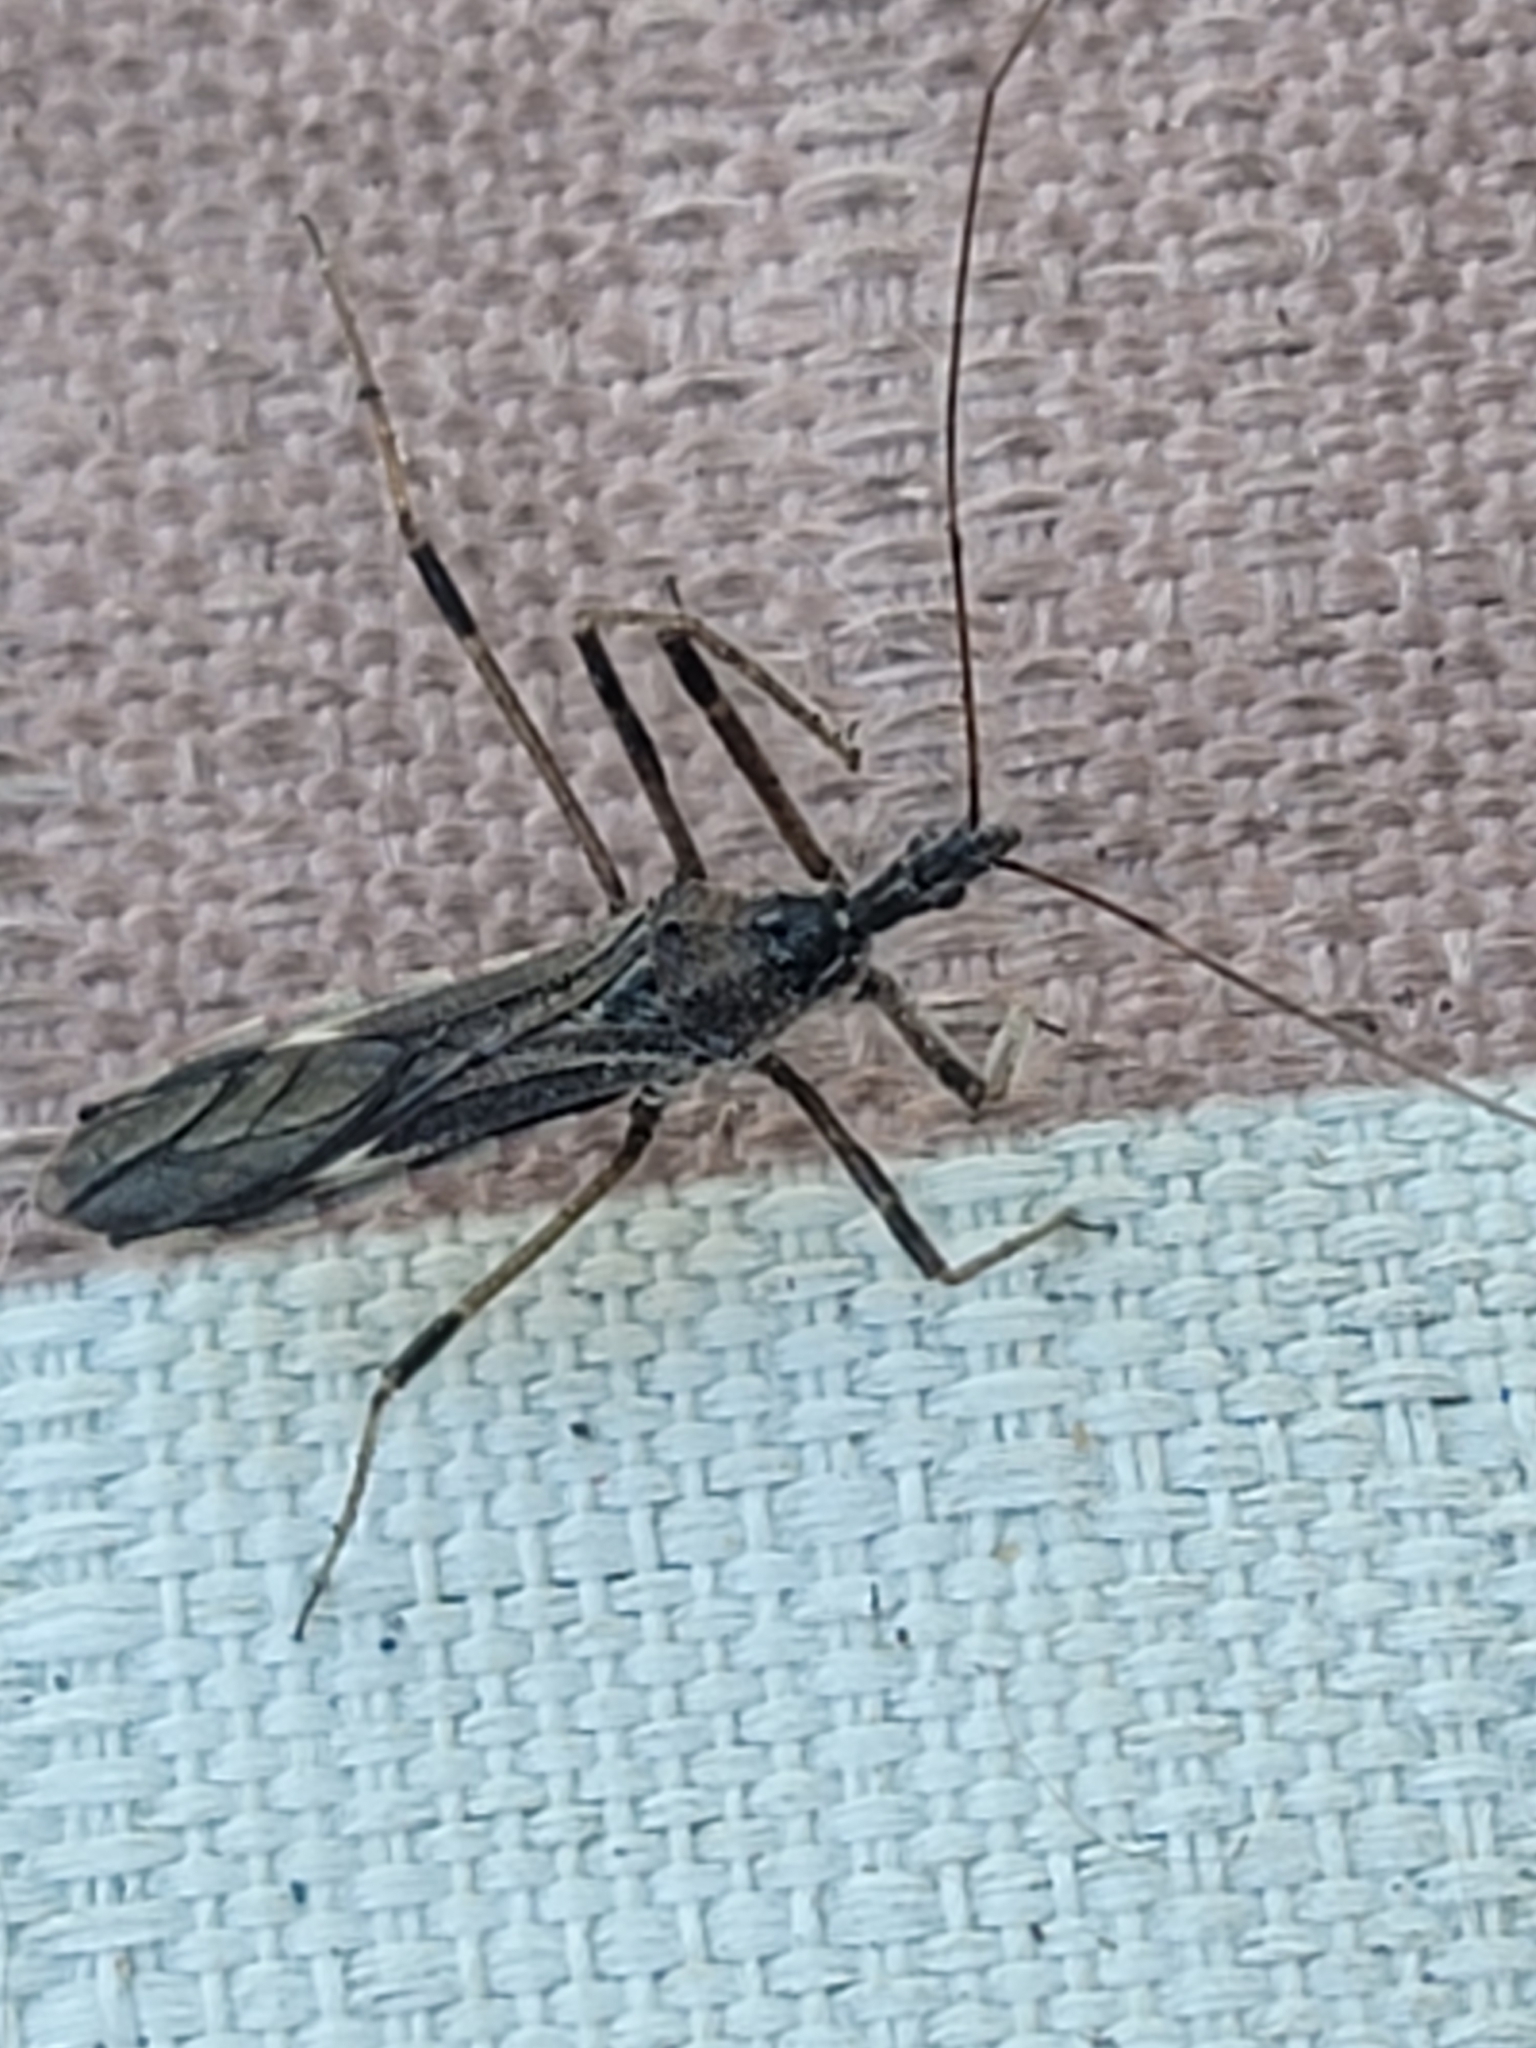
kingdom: Animalia
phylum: Arthropoda
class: Insecta
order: Hemiptera
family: Reduviidae
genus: Zelus
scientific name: Zelus tetracanthus
